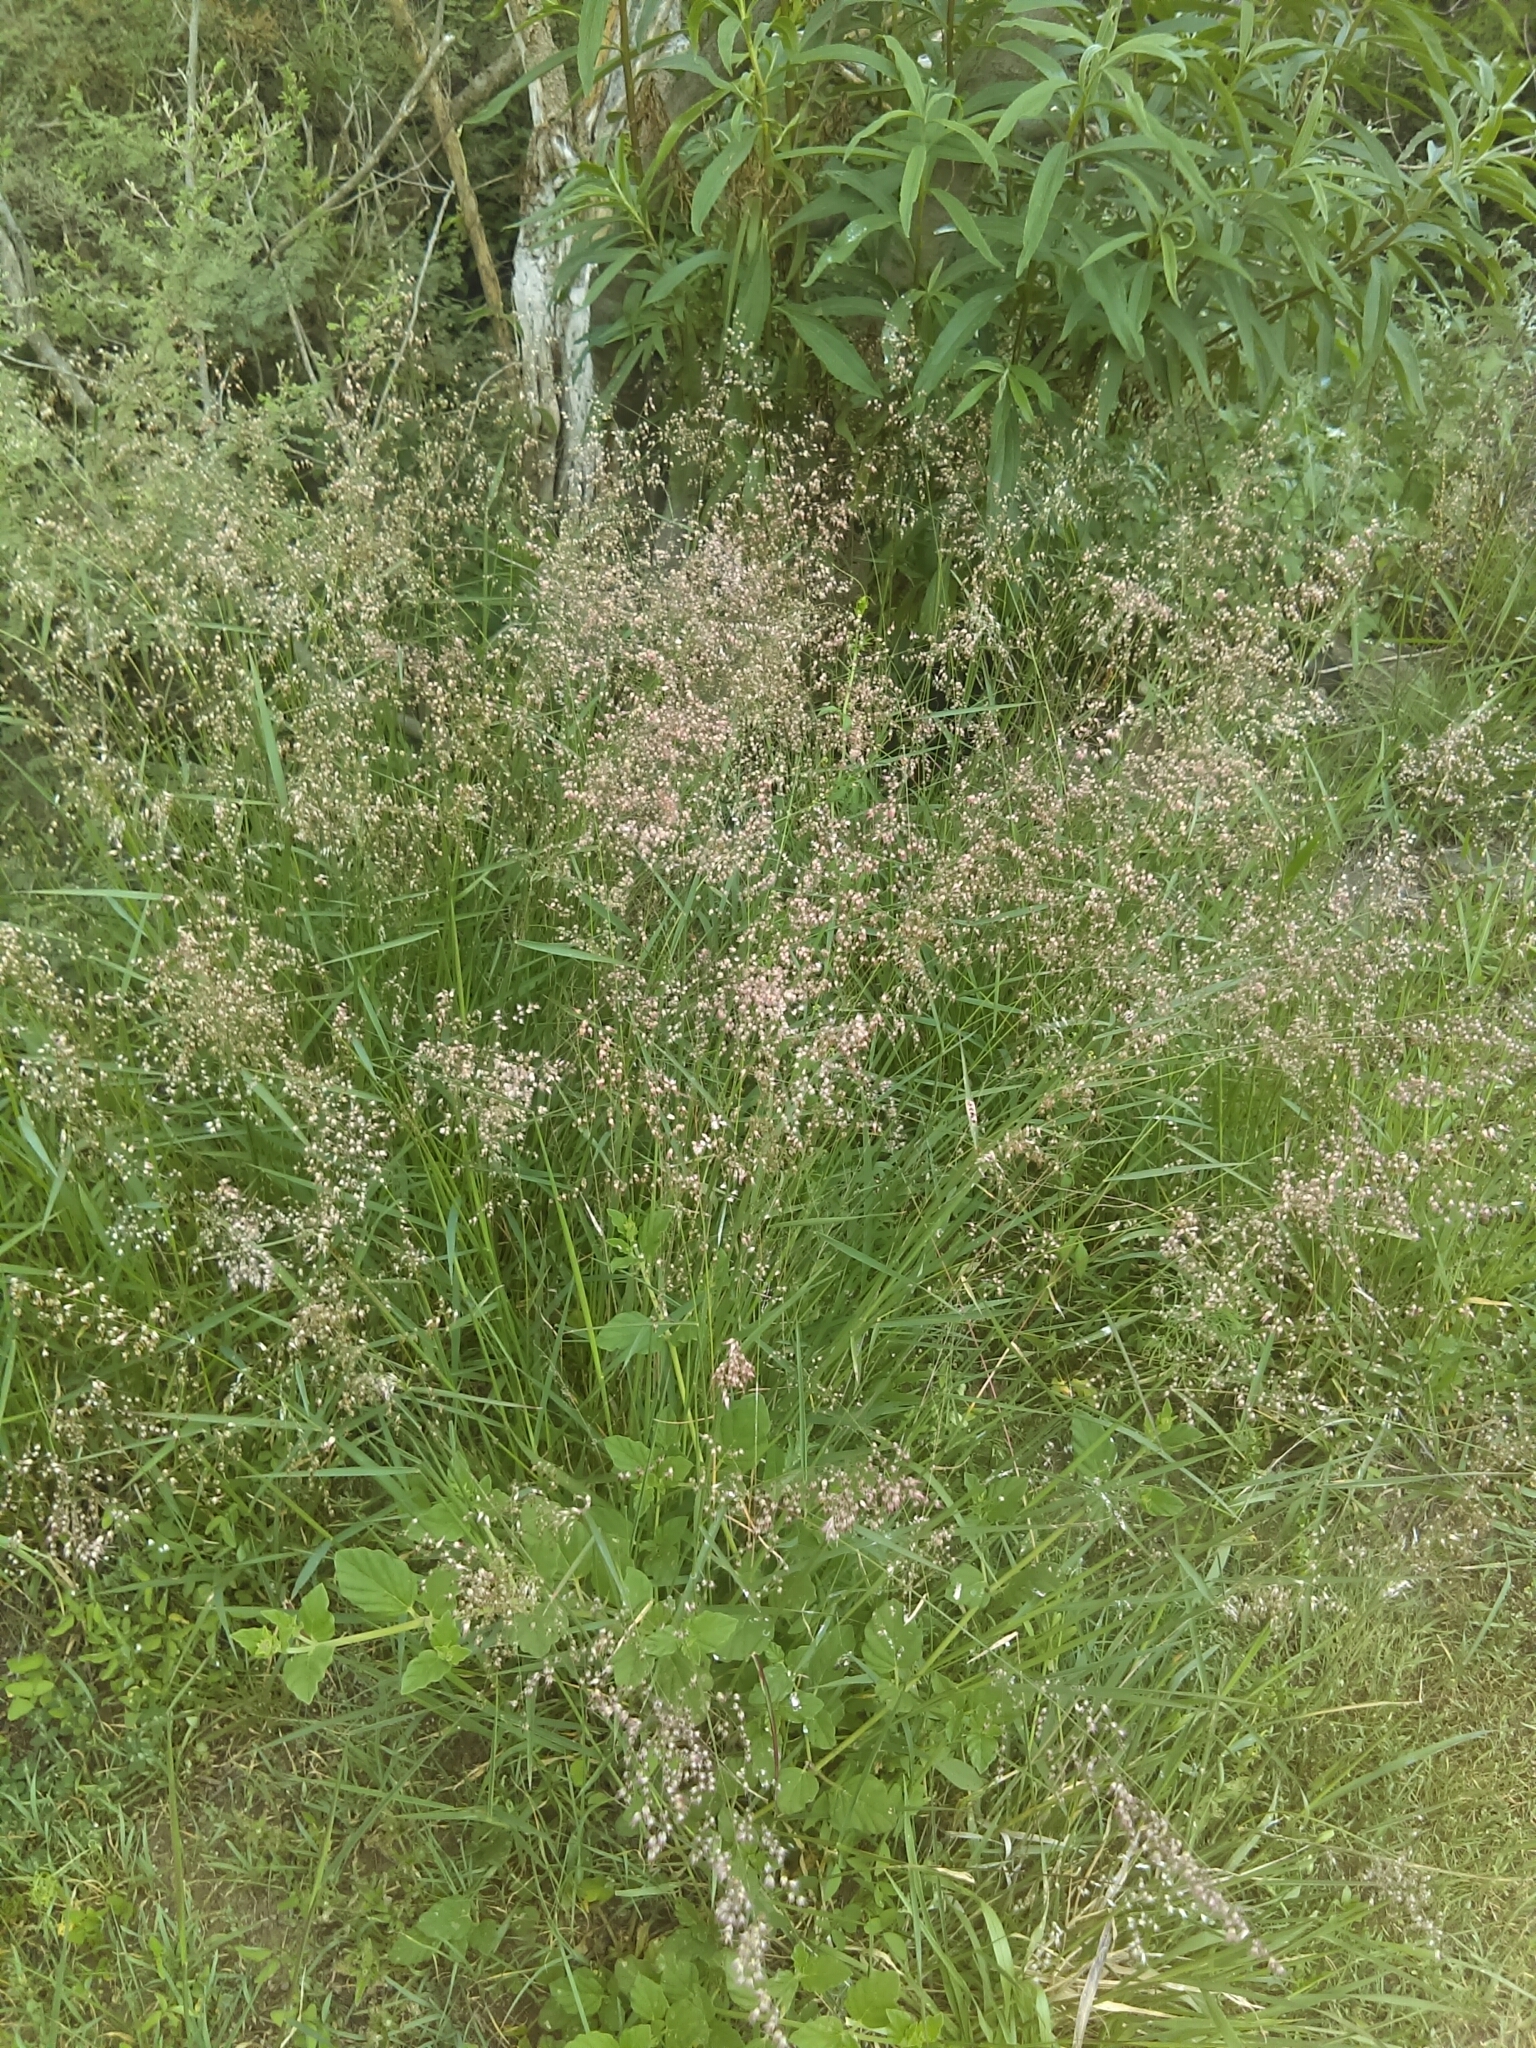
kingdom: Plantae
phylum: Tracheophyta
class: Liliopsida
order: Poales
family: Poaceae
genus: Melinis
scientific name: Melinis repens
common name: Rose natal grass
